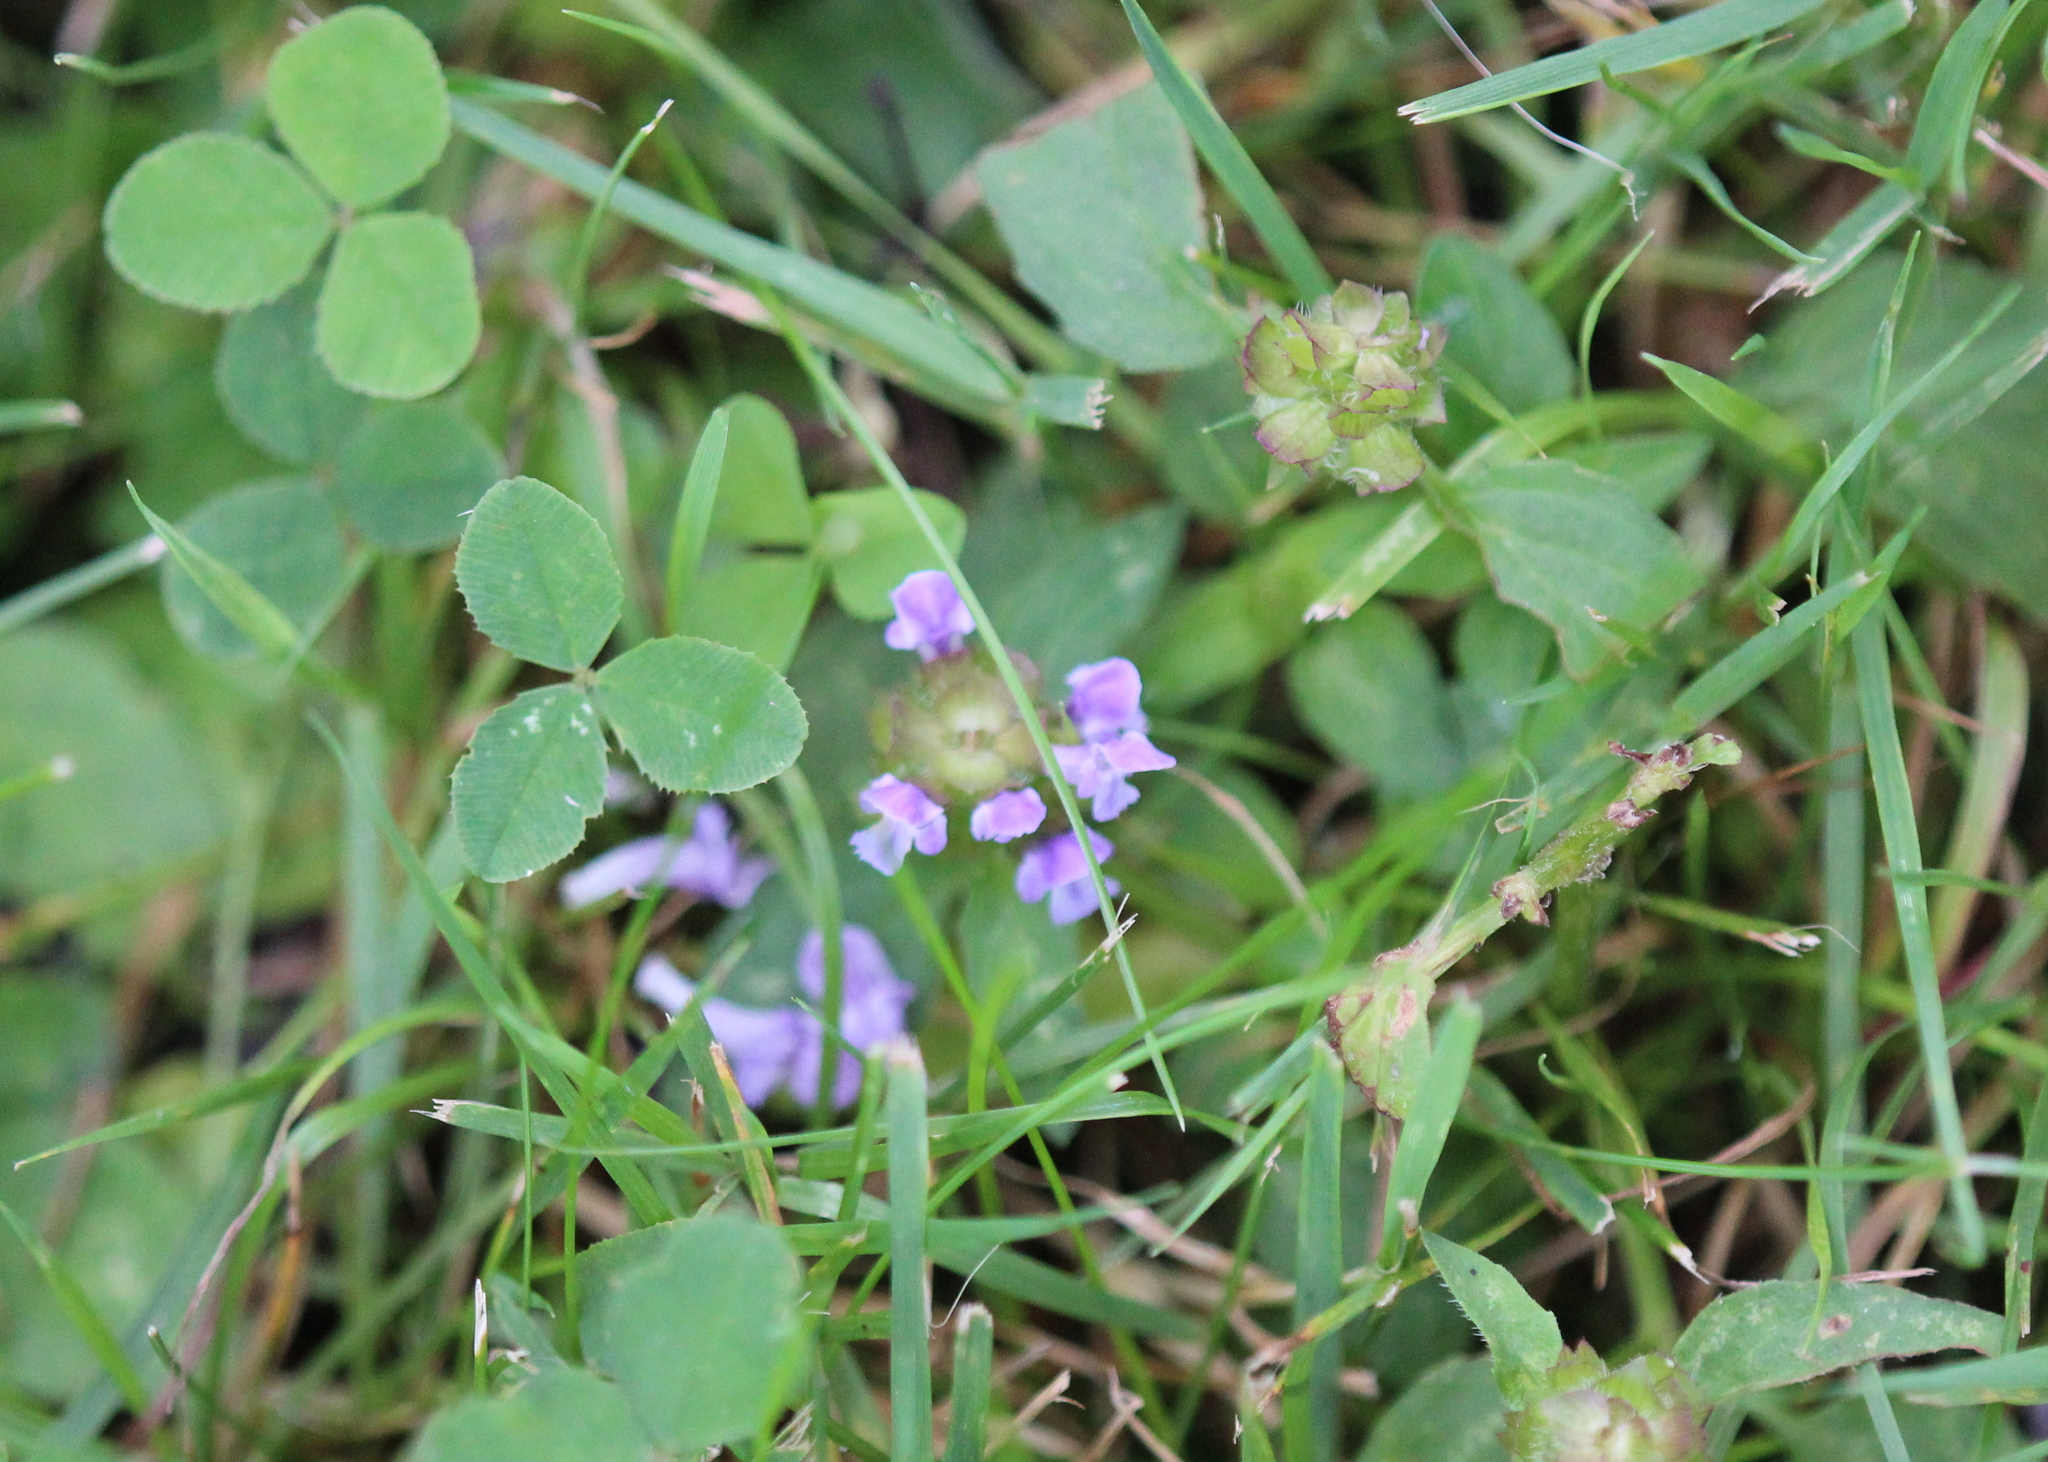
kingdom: Plantae
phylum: Tracheophyta
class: Magnoliopsida
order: Lamiales
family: Lamiaceae
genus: Prunella
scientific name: Prunella vulgaris
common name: Heal-all
